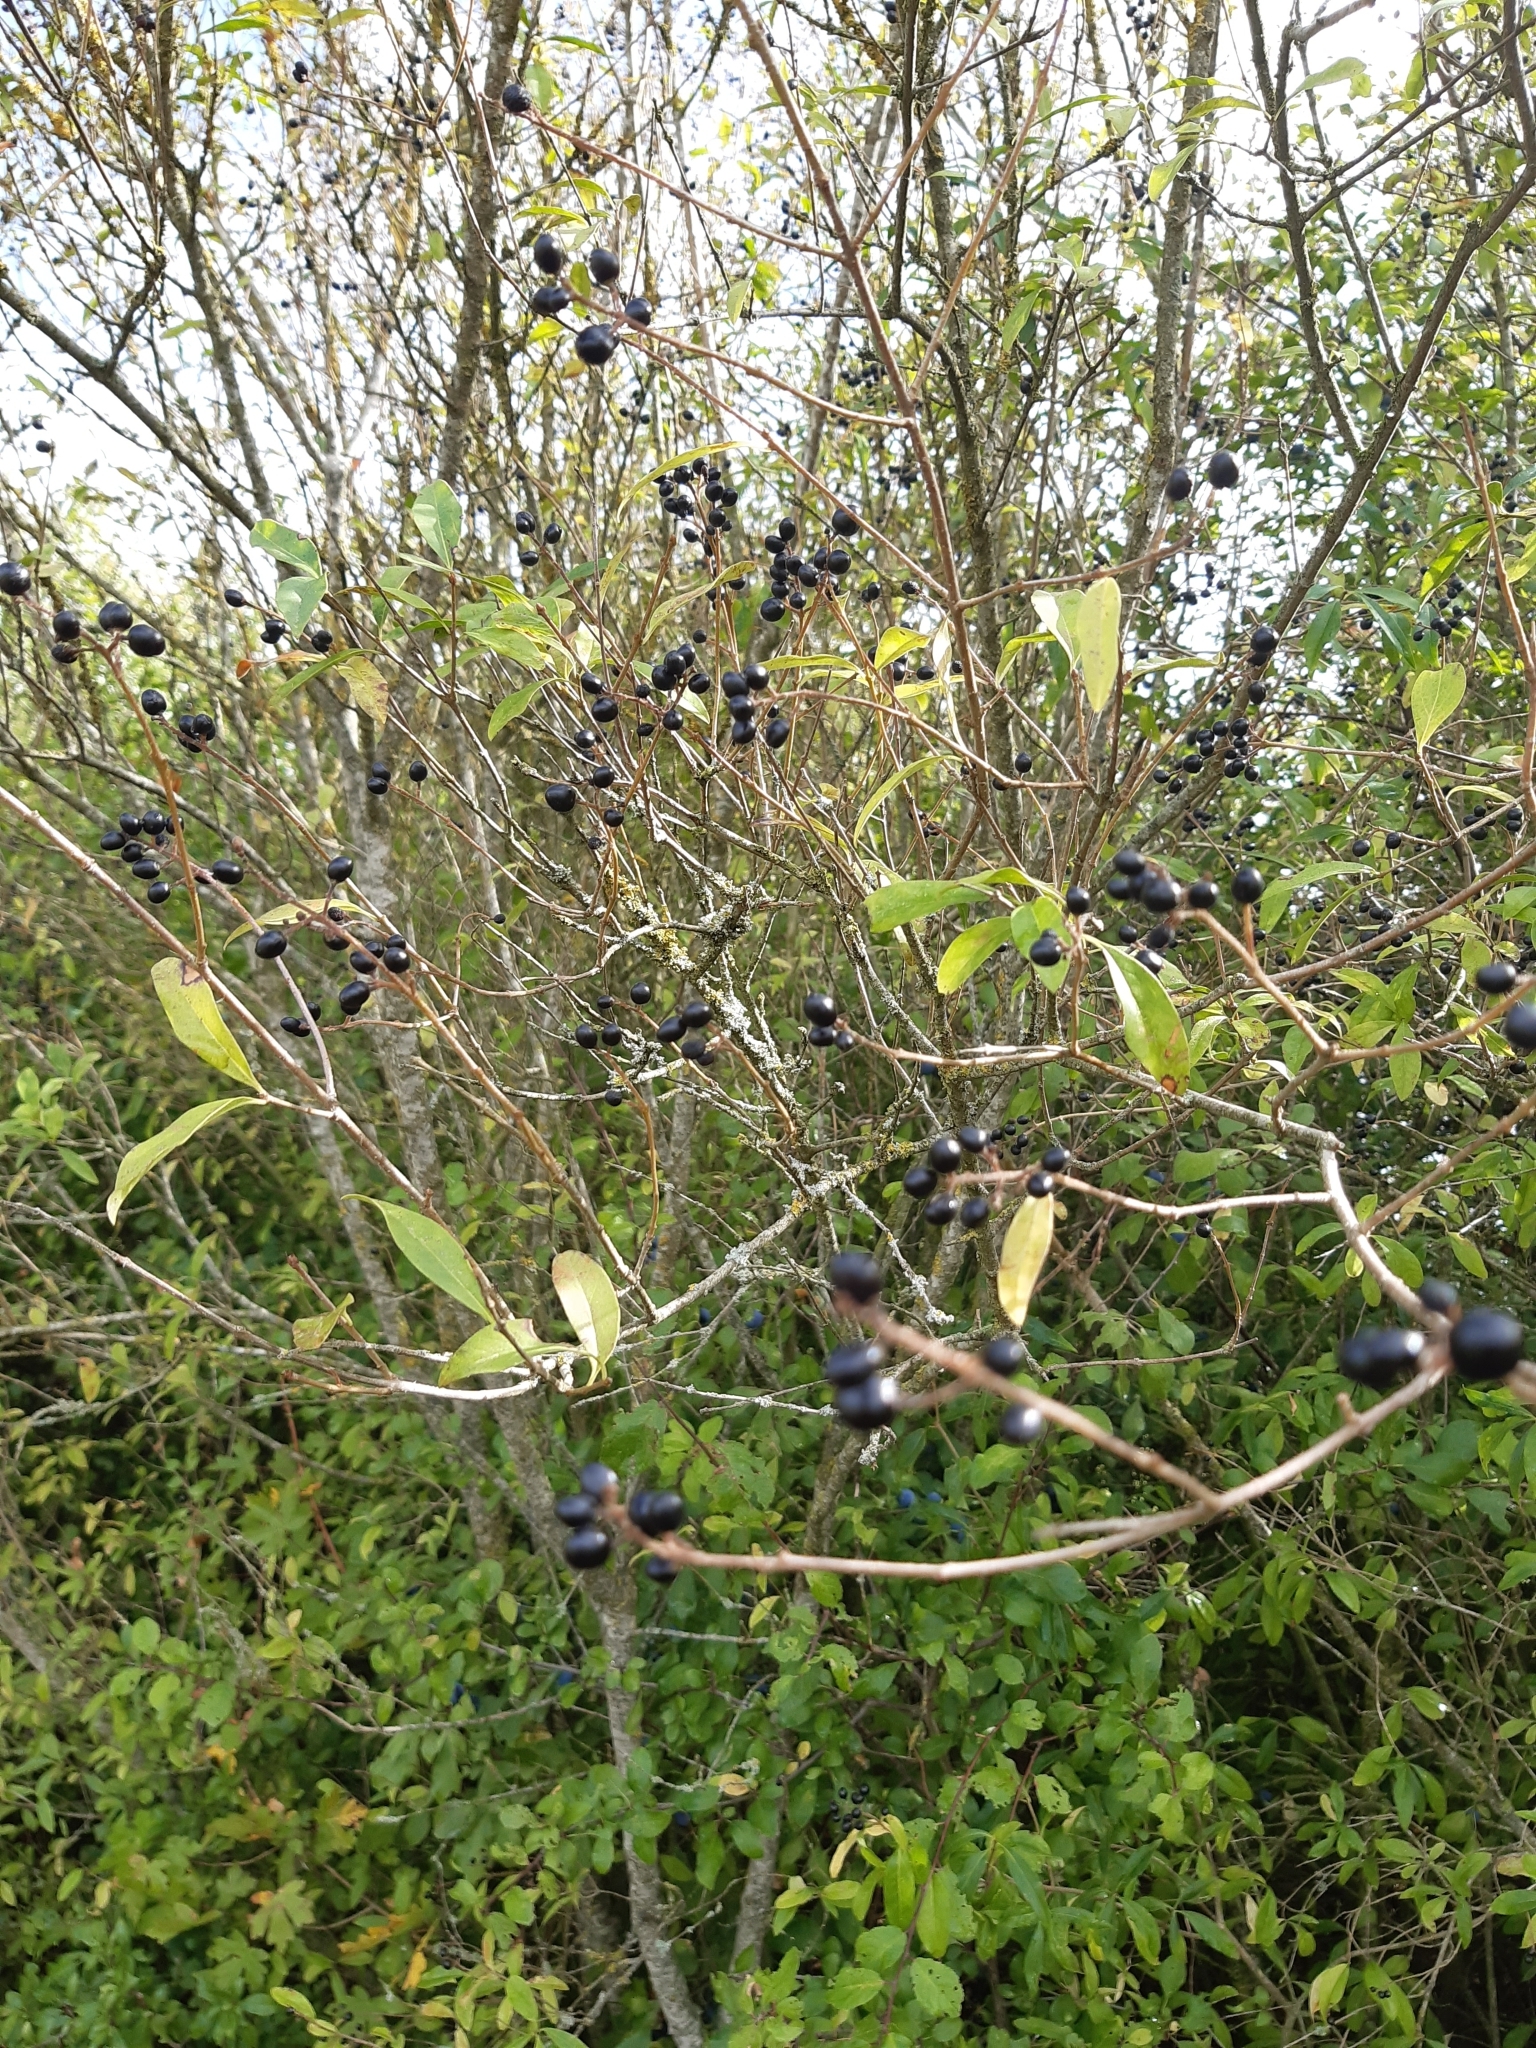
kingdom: Plantae
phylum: Tracheophyta
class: Magnoliopsida
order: Lamiales
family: Oleaceae
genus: Ligustrum
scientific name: Ligustrum vulgare
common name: Wild privet
